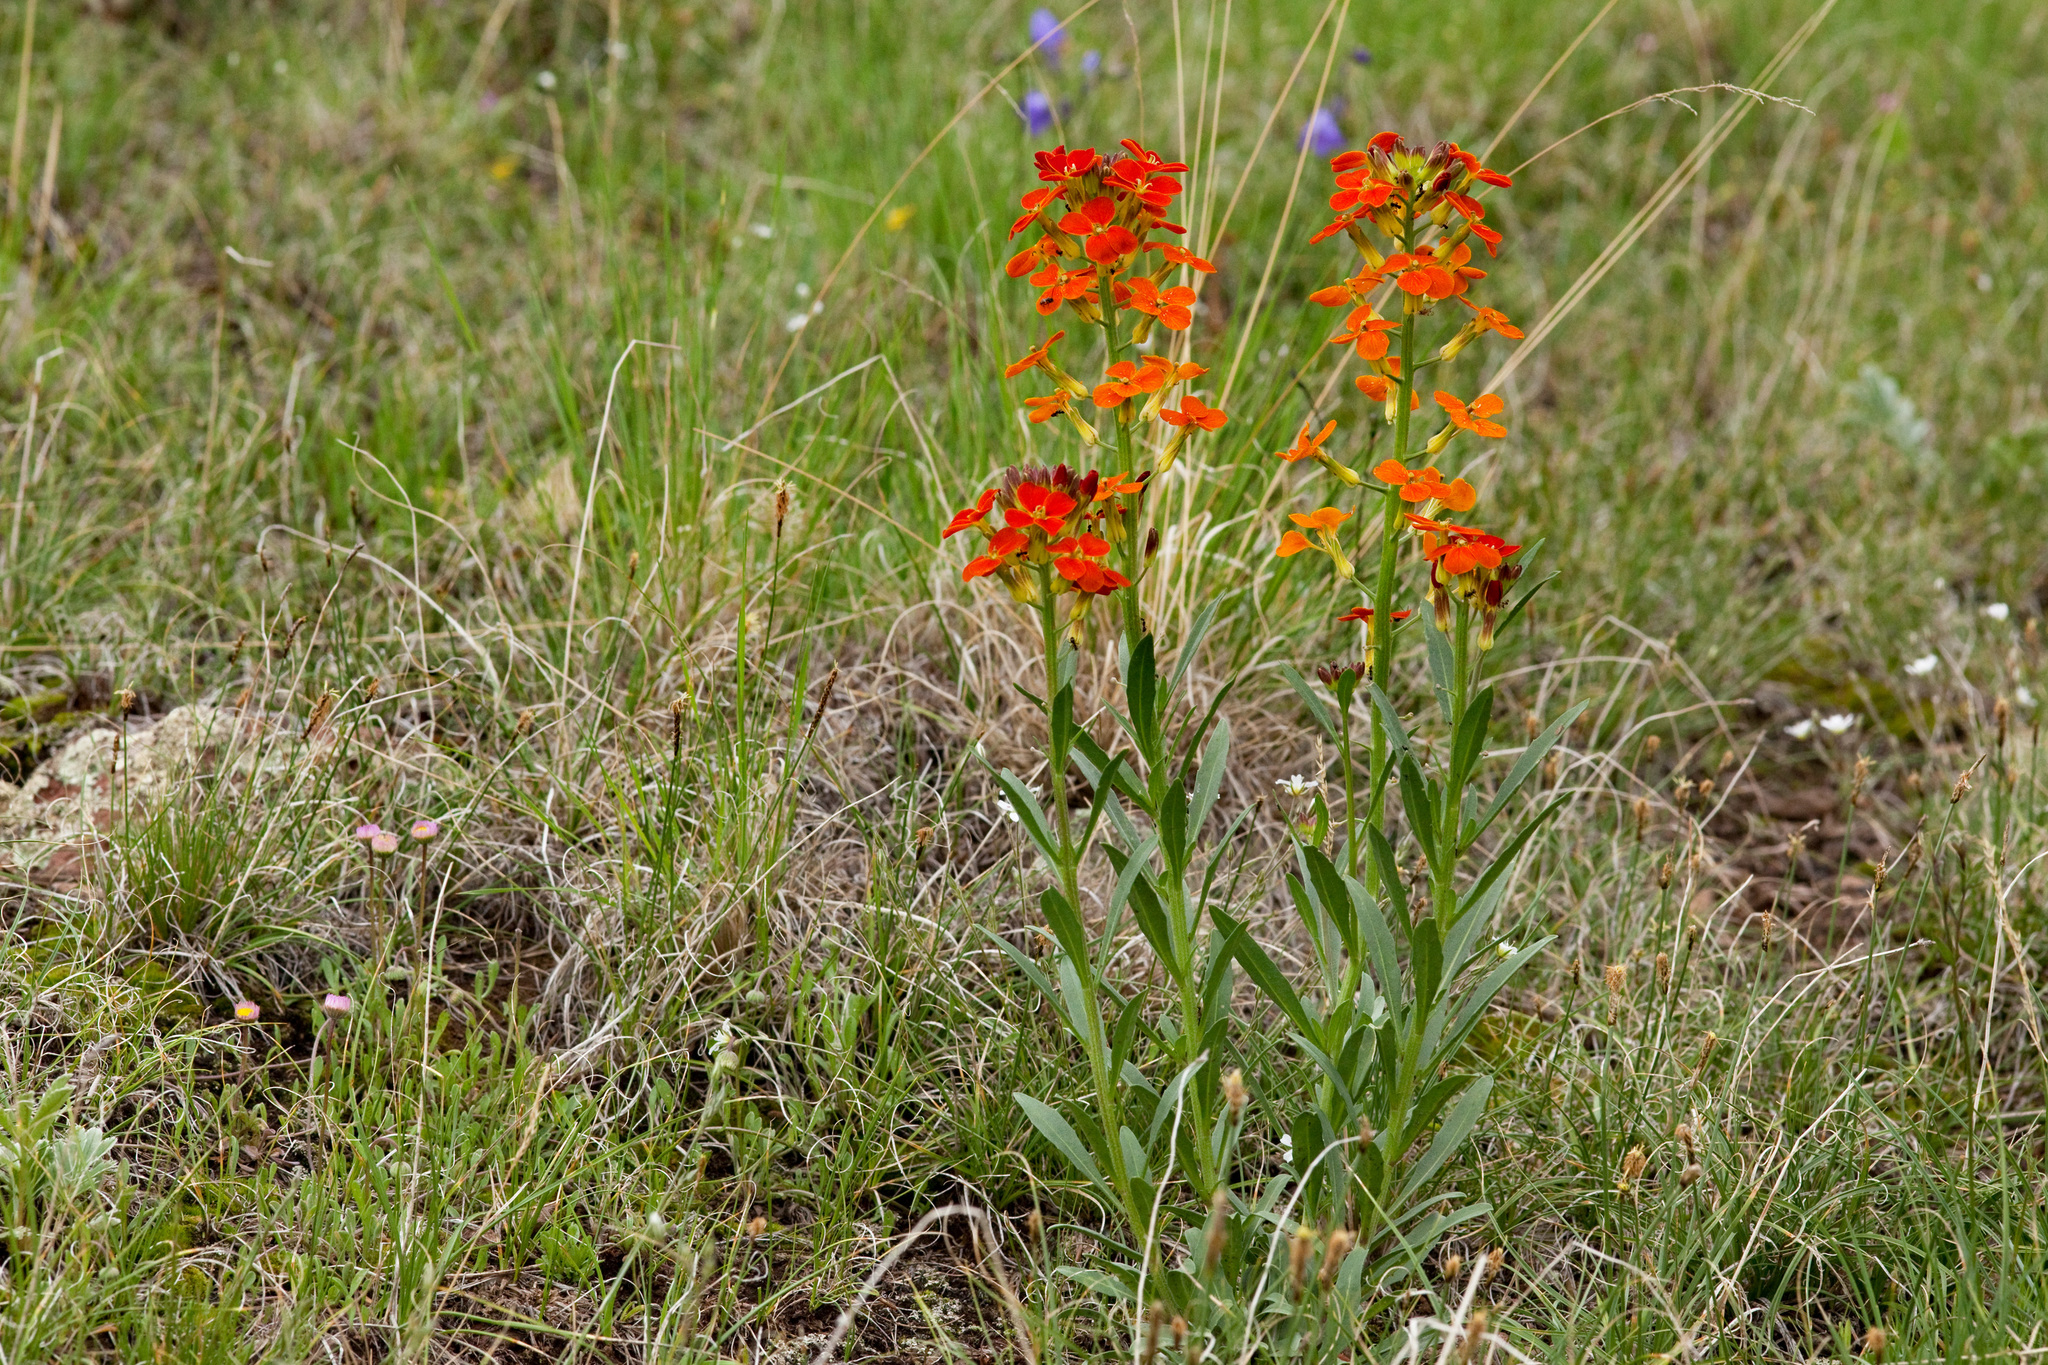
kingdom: Plantae
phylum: Tracheophyta
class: Magnoliopsida
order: Brassicales
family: Brassicaceae
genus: Erysimum
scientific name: Erysimum capitatum
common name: Western wallflower
